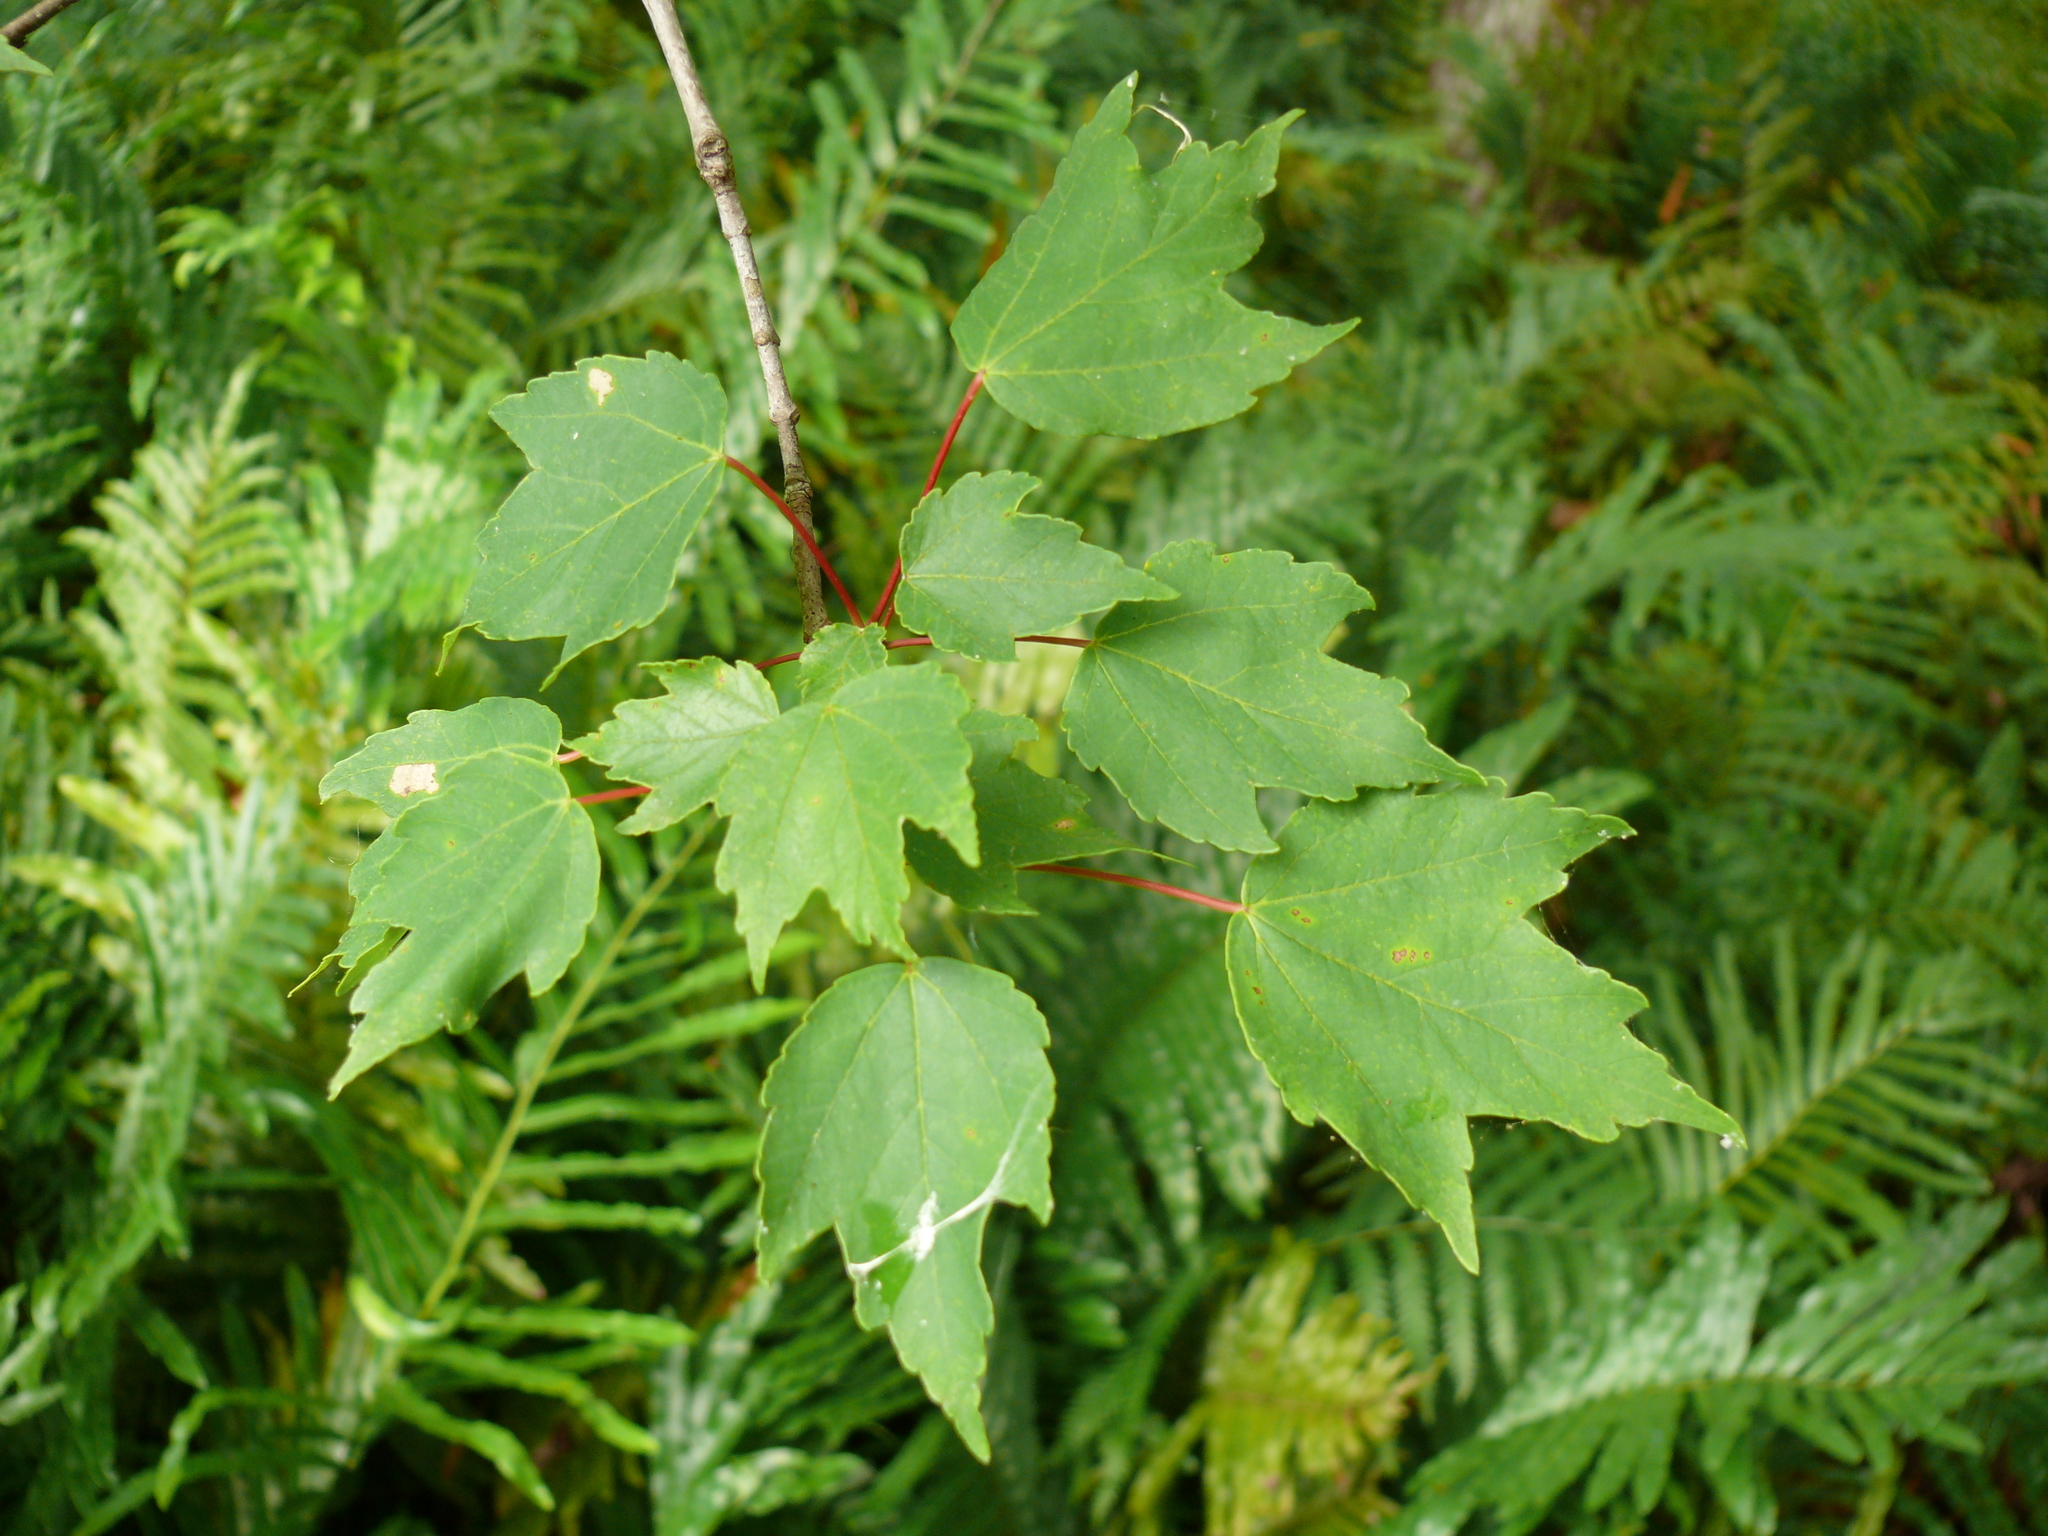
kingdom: Plantae
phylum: Tracheophyta
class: Magnoliopsida
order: Sapindales
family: Sapindaceae
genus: Acer
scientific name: Acer rubrum
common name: Red maple
